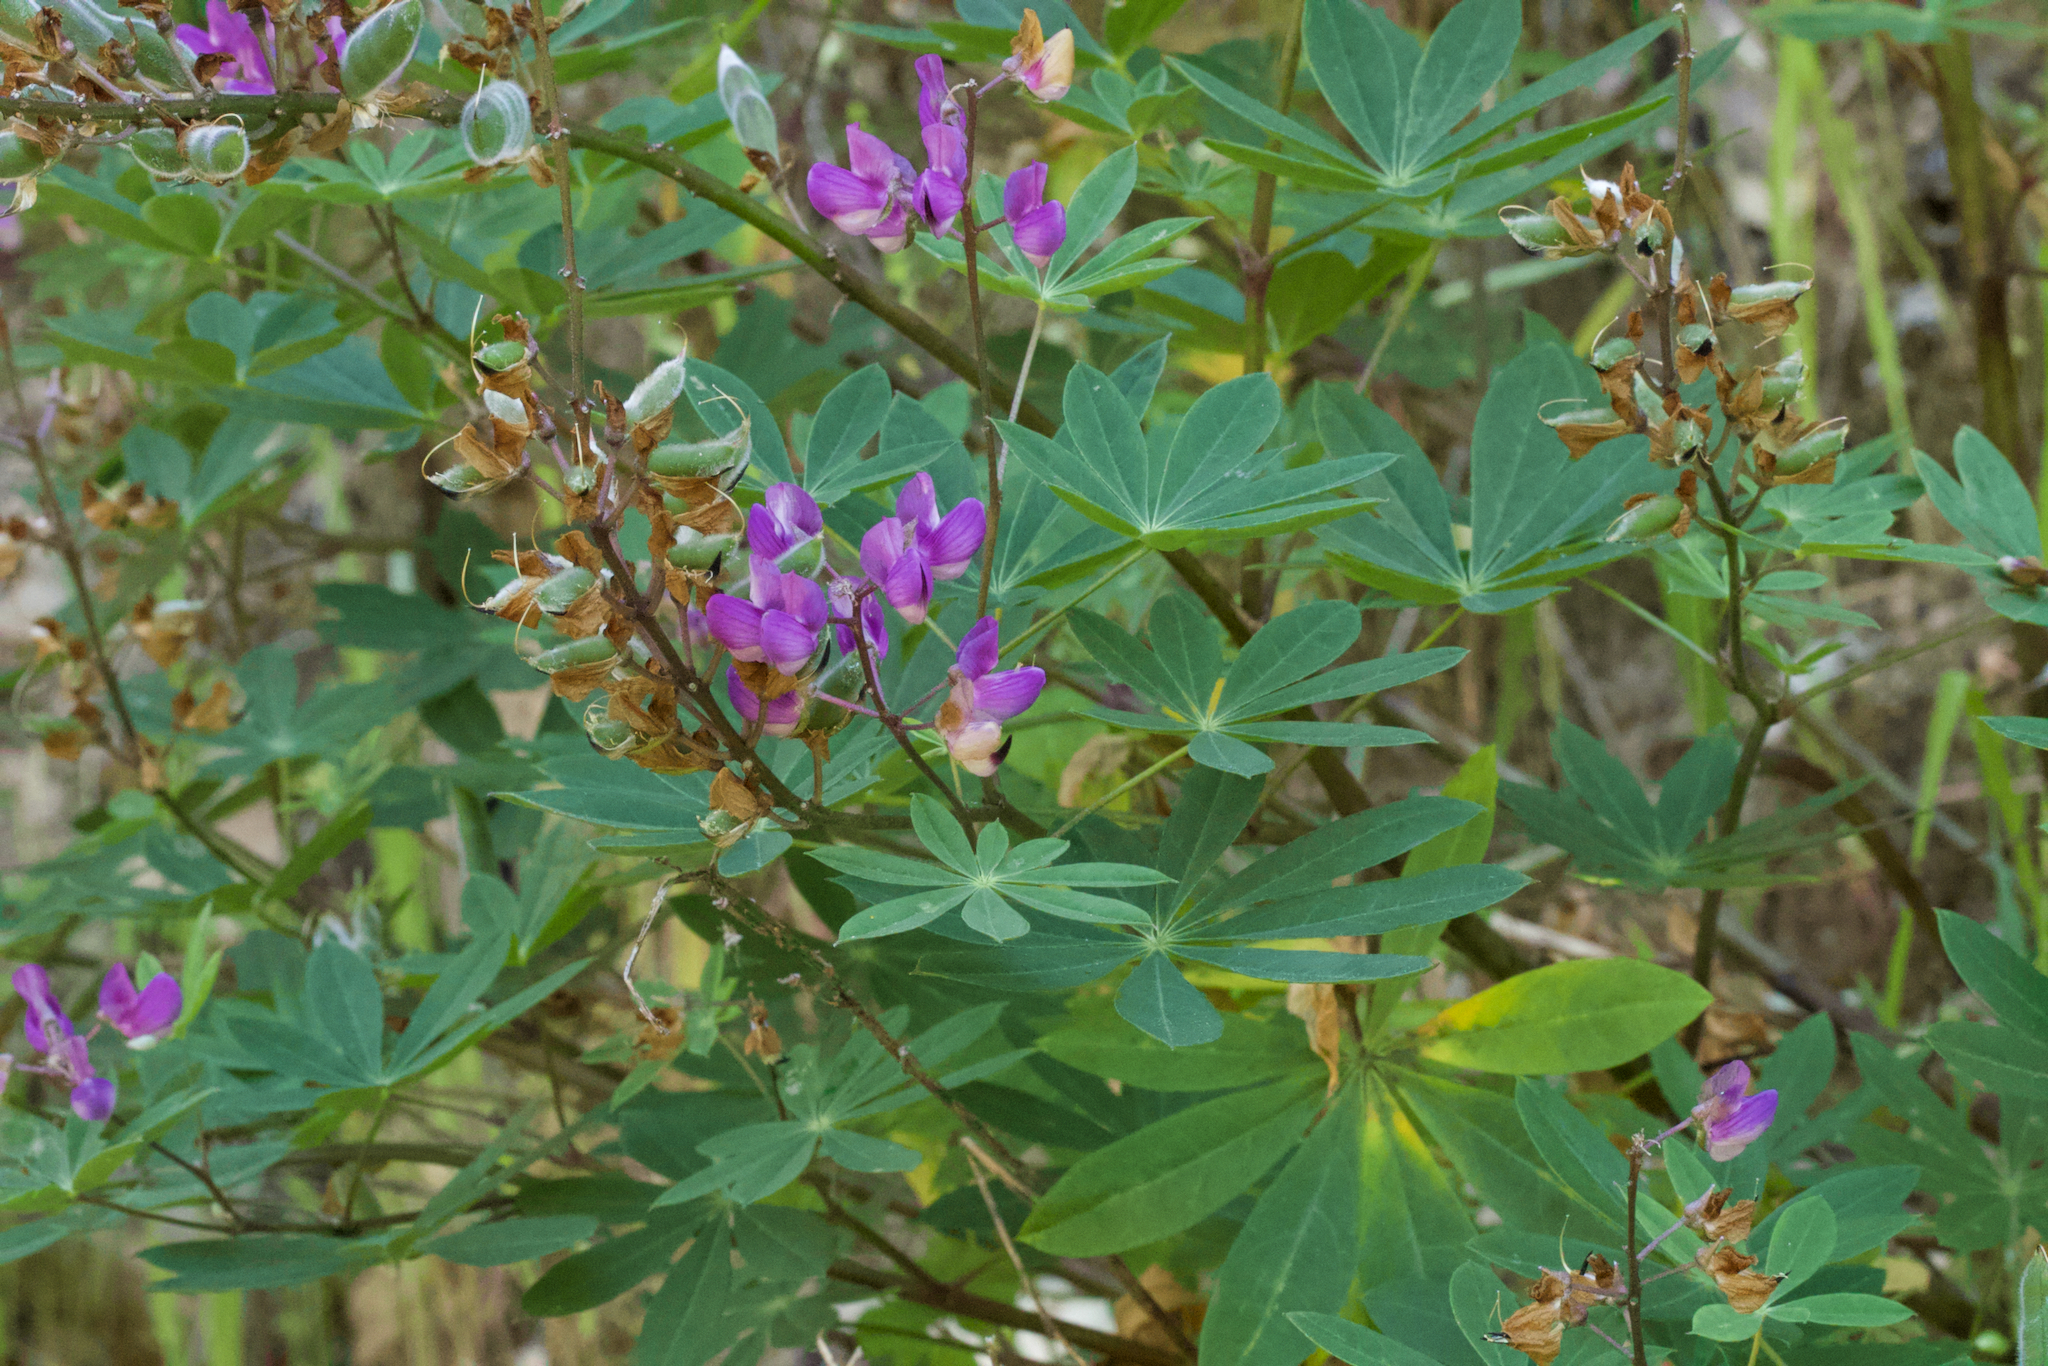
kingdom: Plantae
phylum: Tracheophyta
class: Magnoliopsida
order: Fabales
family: Fabaceae
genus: Lupinus
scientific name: Lupinus latifolius
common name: Broad-leaved lupine
